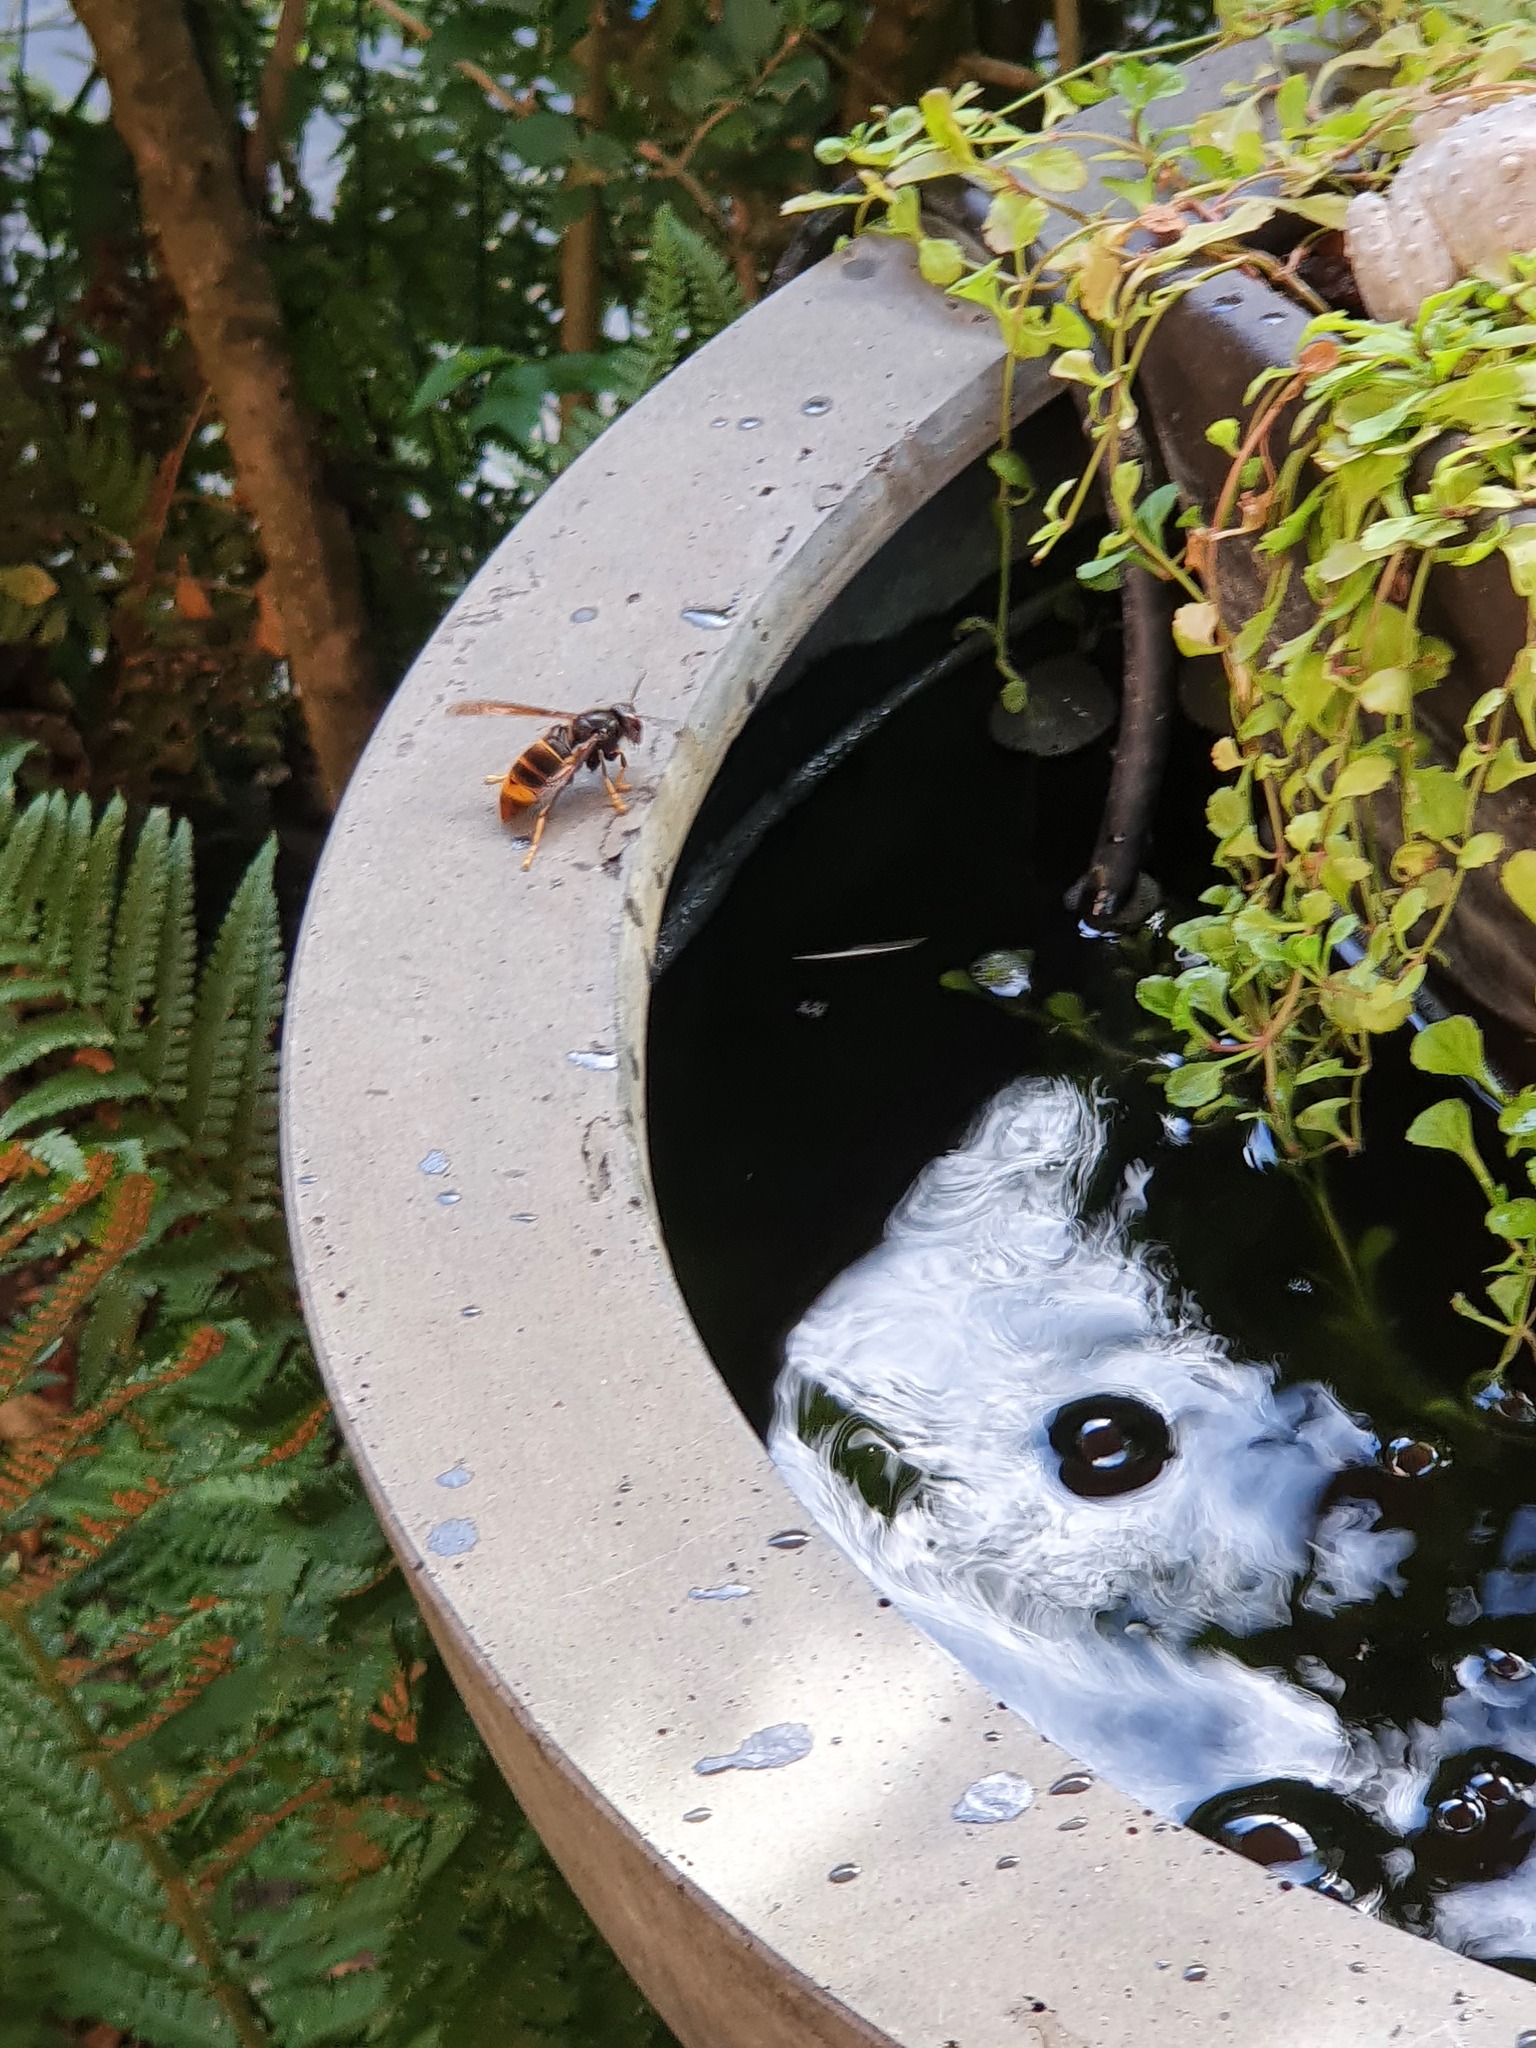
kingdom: Animalia
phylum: Arthropoda
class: Insecta
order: Hymenoptera
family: Vespidae
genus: Vespa
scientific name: Vespa velutina
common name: Asian hornet
